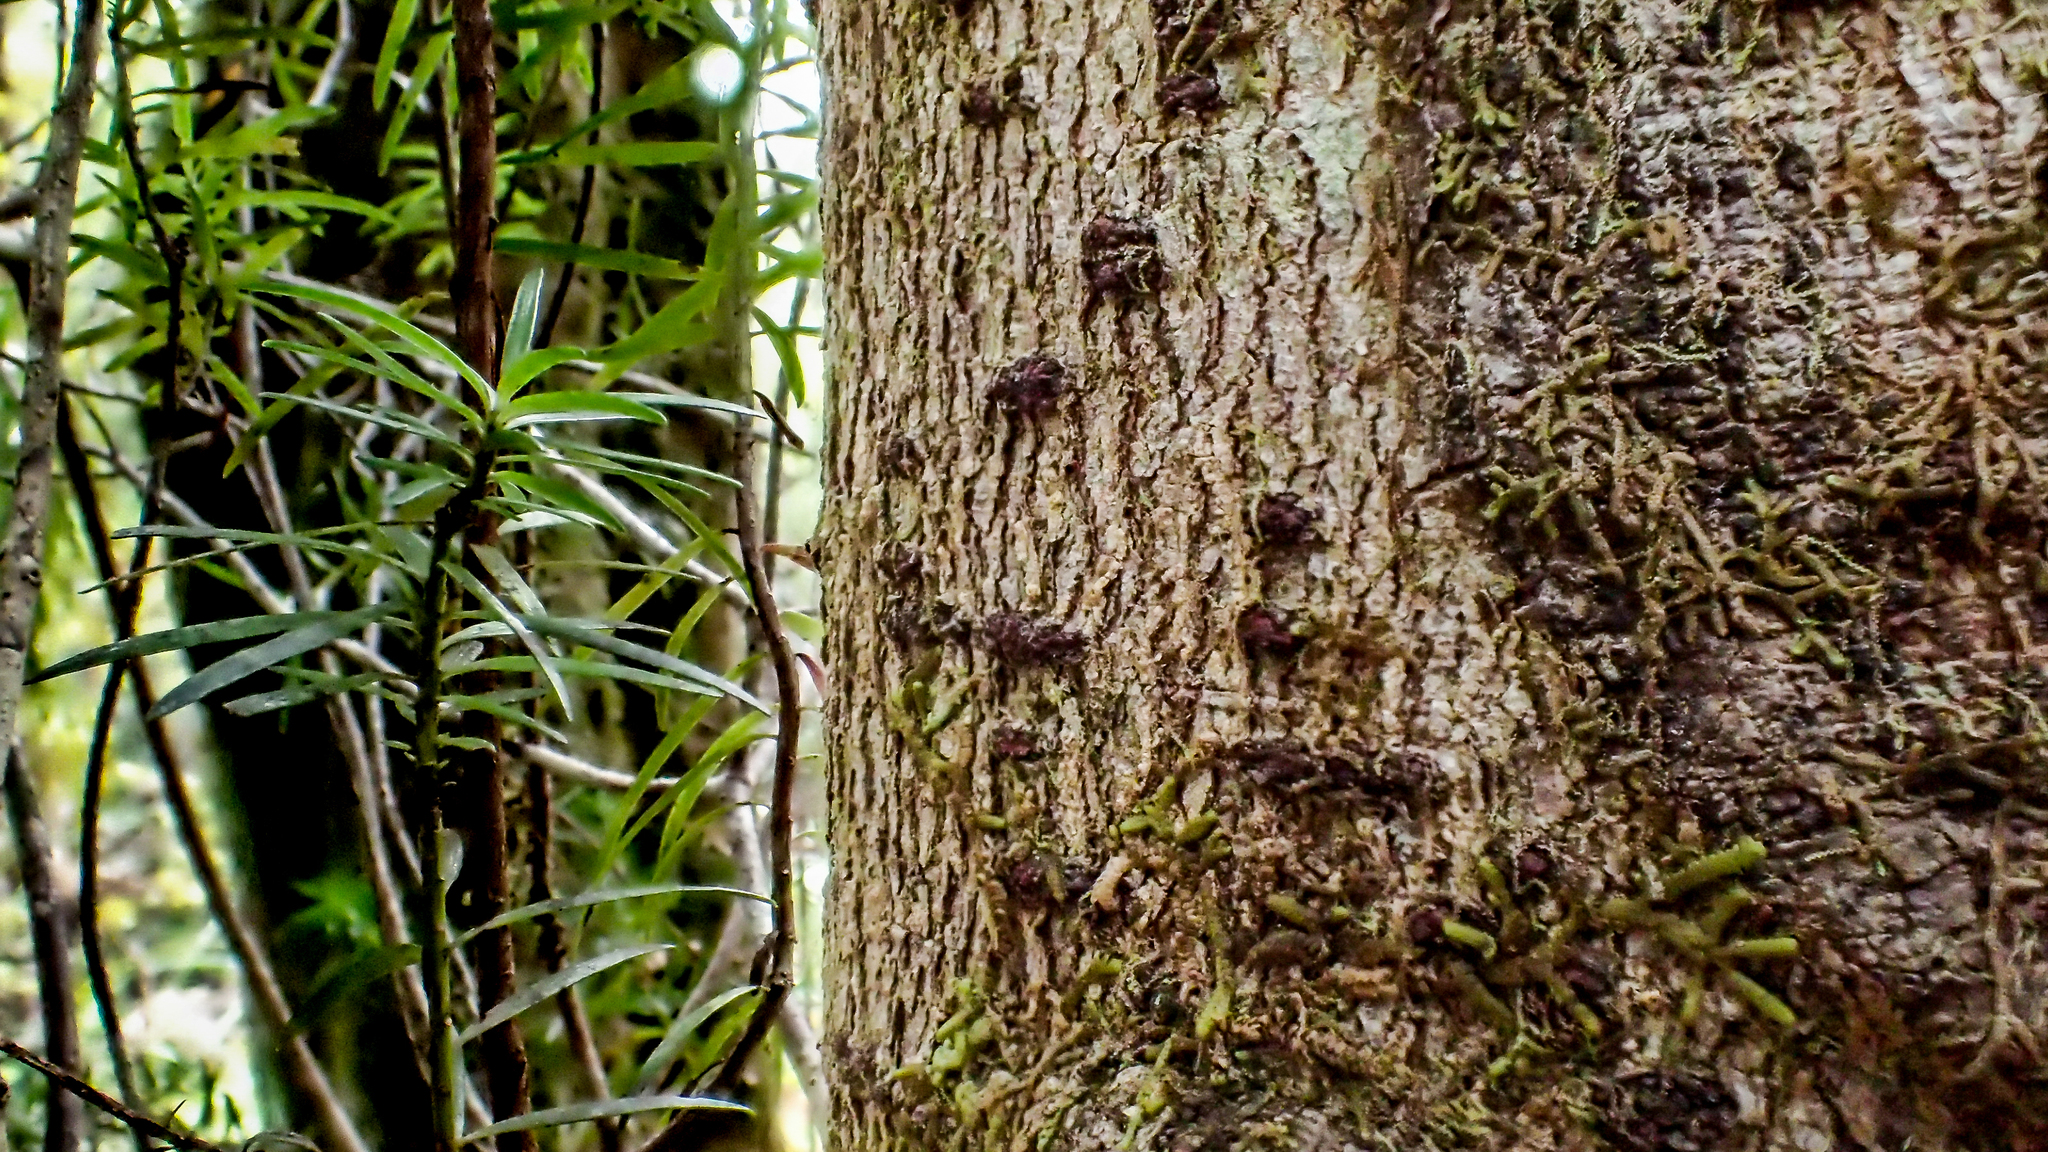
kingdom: Plantae
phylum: Tracheophyta
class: Pinopsida
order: Pinales
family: Podocarpaceae
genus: Halocarpus
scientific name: Halocarpus kirkii
